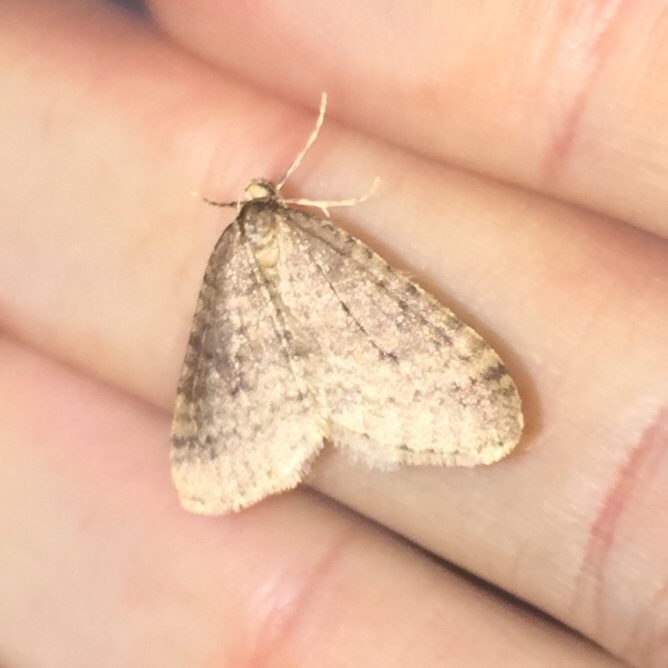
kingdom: Animalia
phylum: Arthropoda
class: Insecta
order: Lepidoptera
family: Geometridae
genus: Operophtera
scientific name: Operophtera brumata
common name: Winter moth
